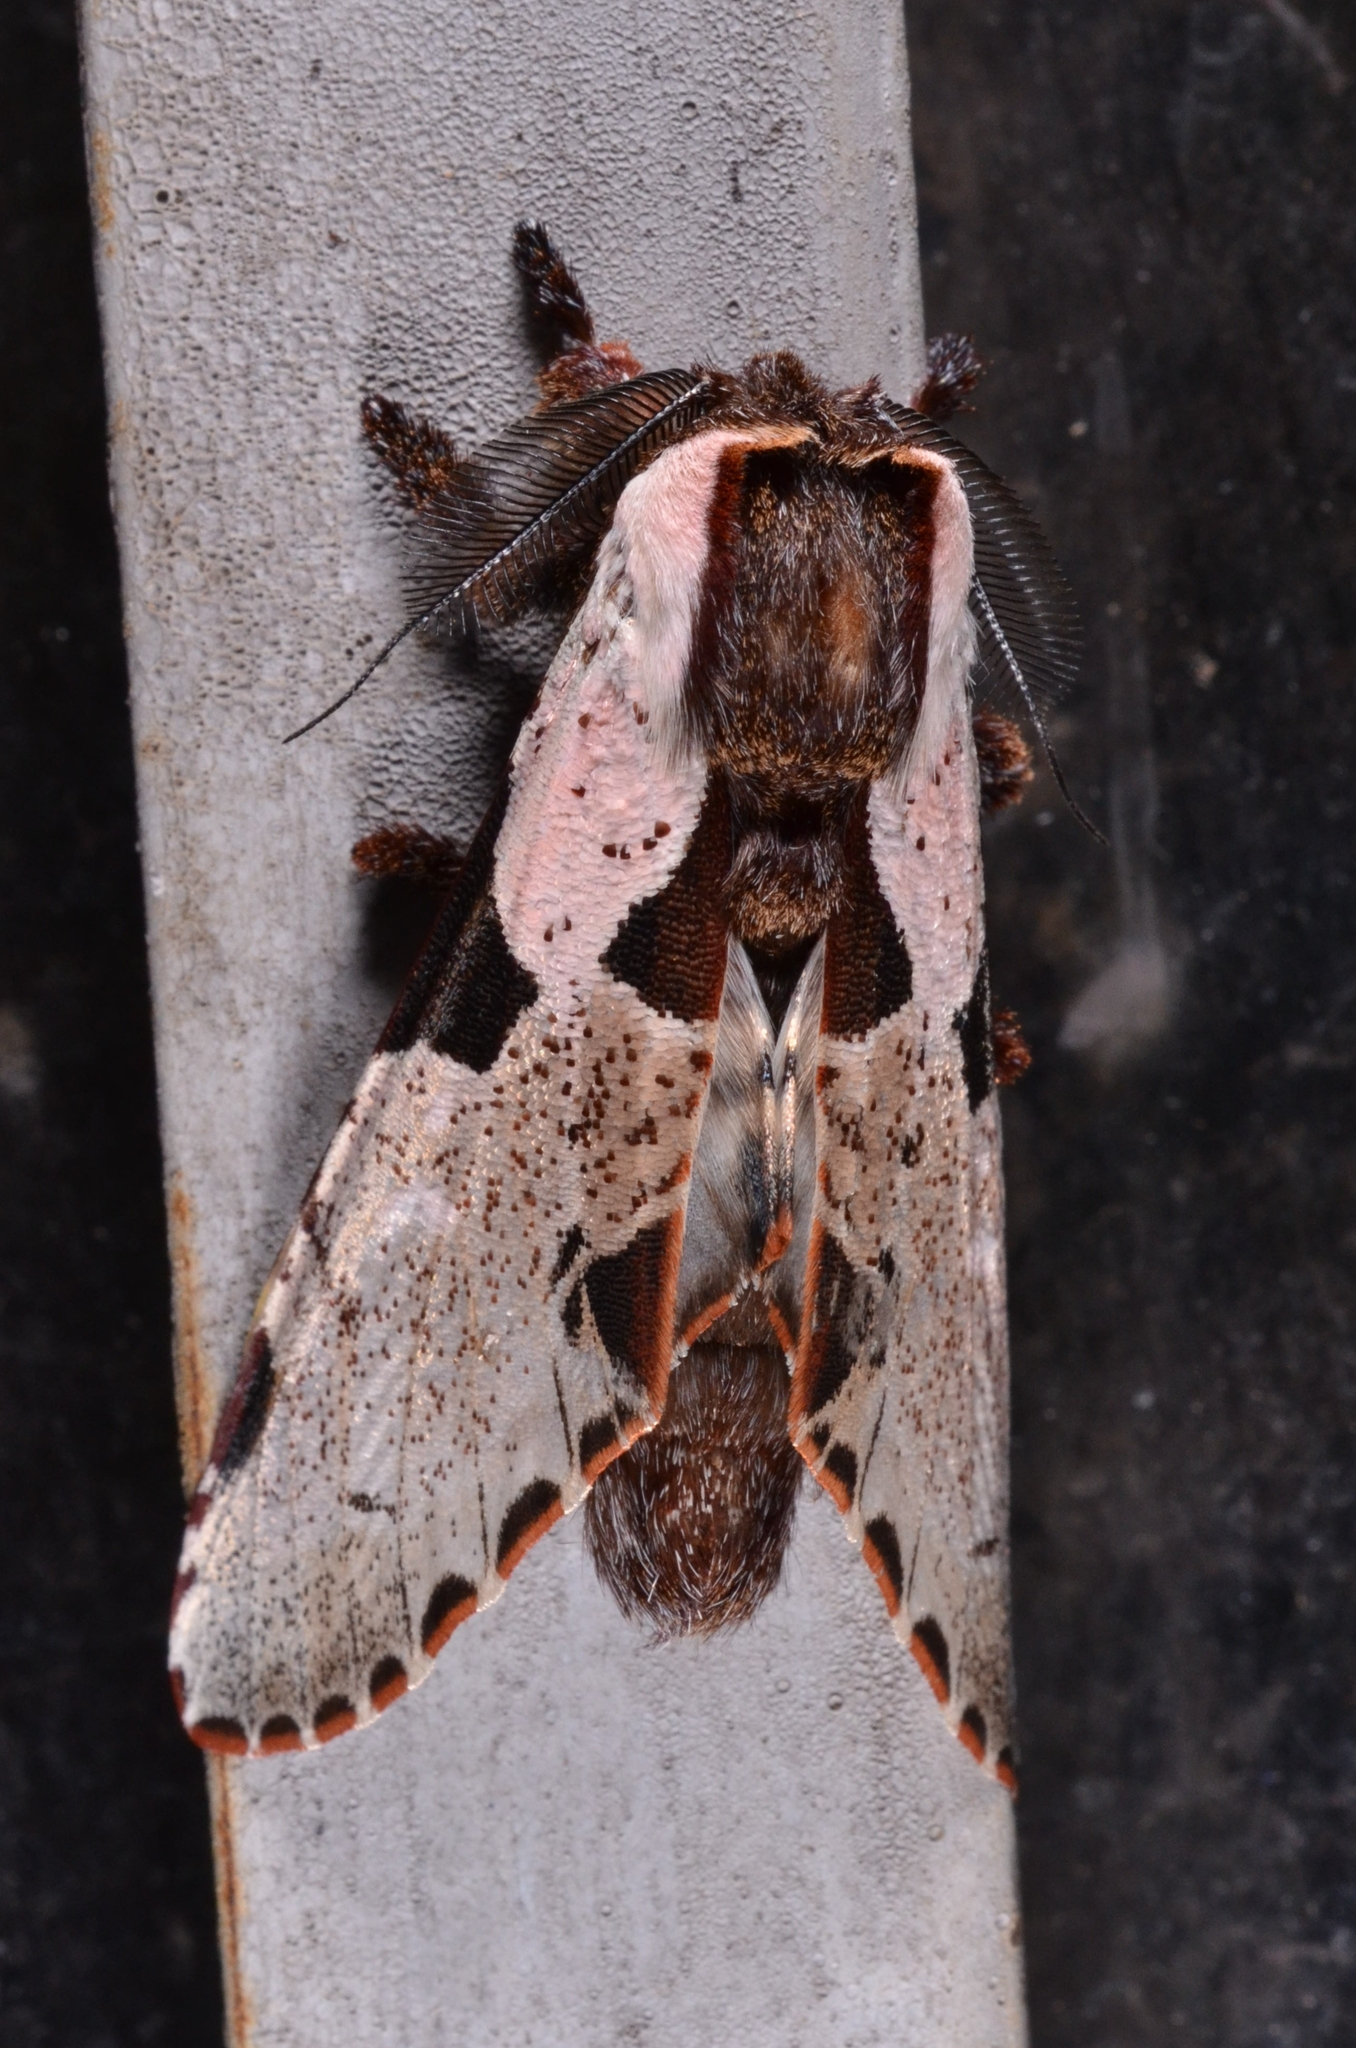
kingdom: Animalia
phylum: Arthropoda
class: Insecta
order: Lepidoptera
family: Notodontidae
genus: Harpyia
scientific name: Harpyia
